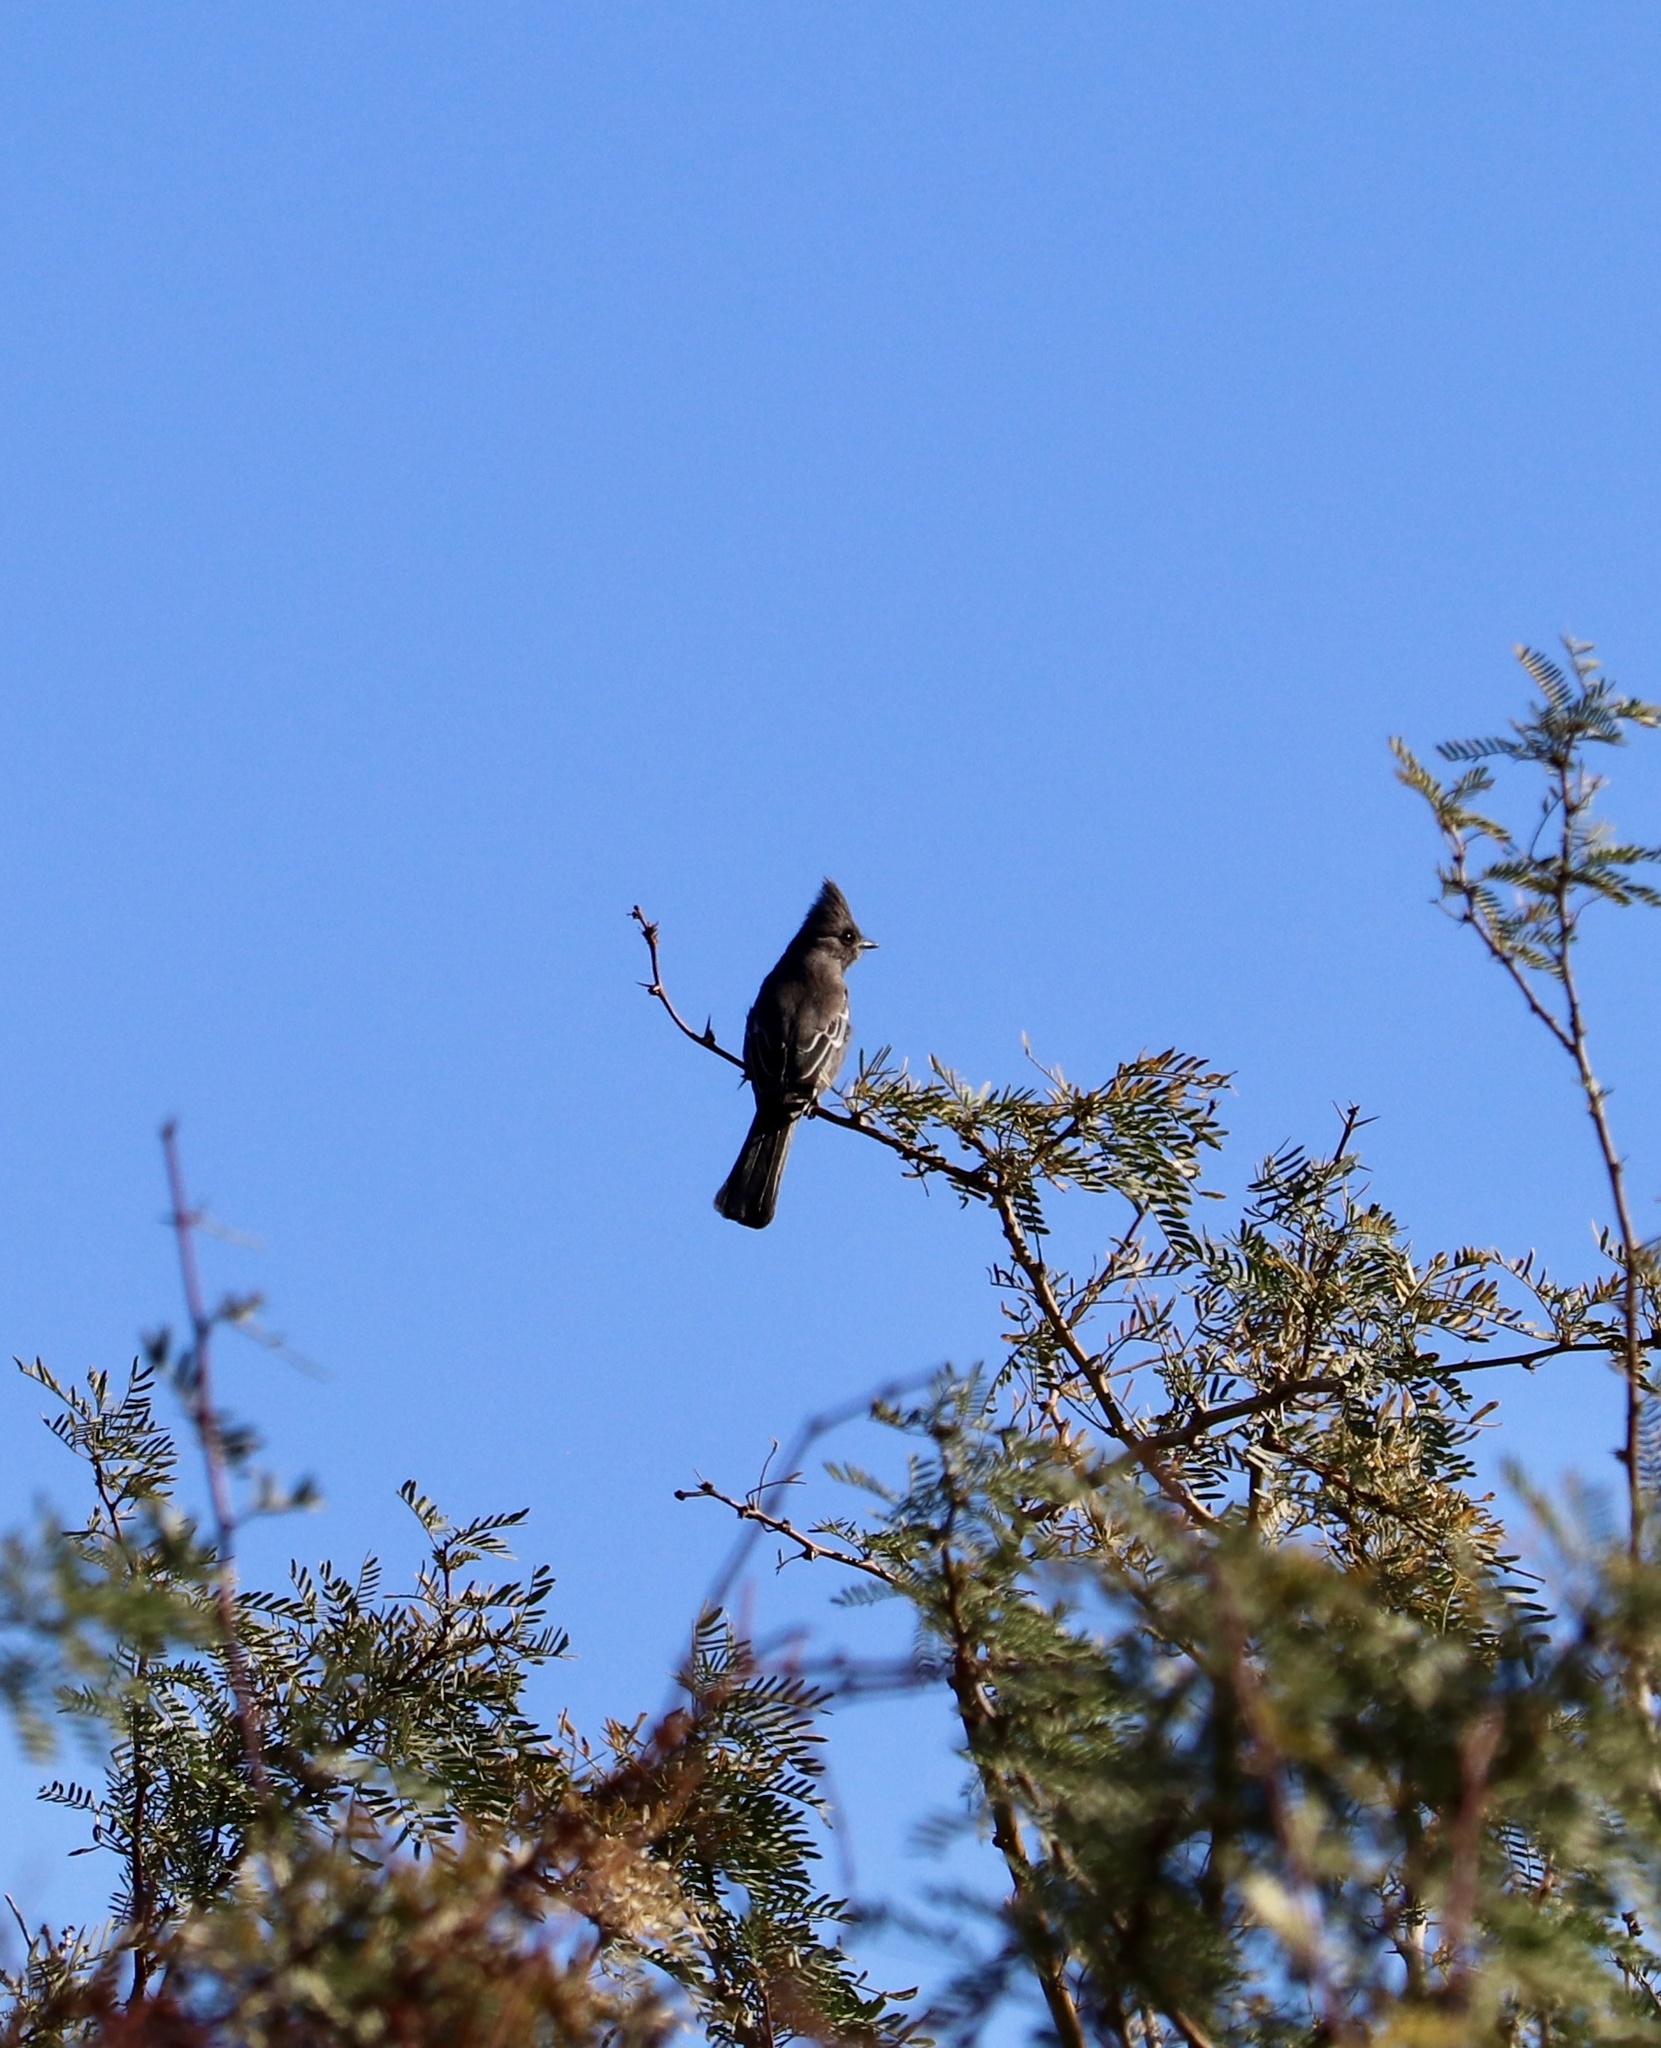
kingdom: Animalia
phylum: Chordata
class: Aves
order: Passeriformes
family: Ptilogonatidae
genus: Phainopepla
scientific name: Phainopepla nitens
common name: Phainopepla
